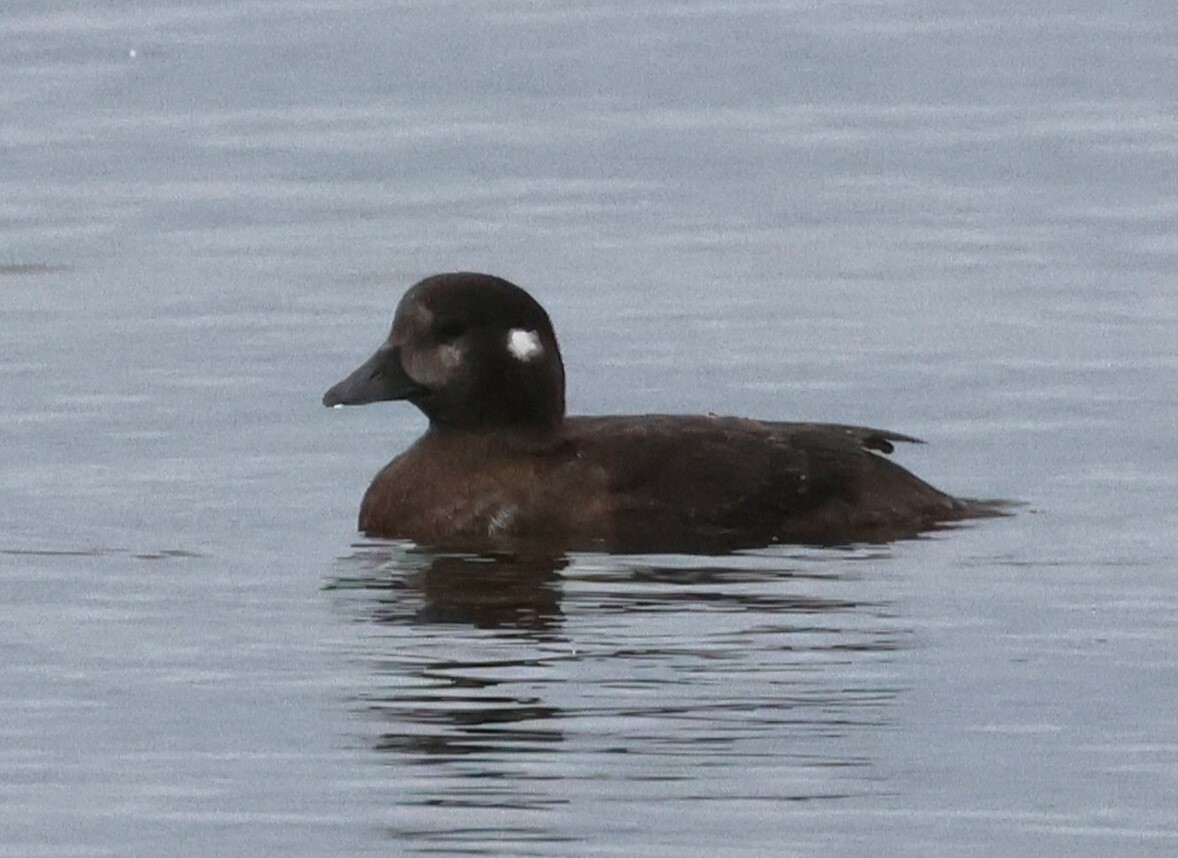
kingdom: Animalia
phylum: Chordata
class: Aves
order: Anseriformes
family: Anatidae
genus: Histrionicus
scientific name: Histrionicus histrionicus
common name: Harlequin duck
